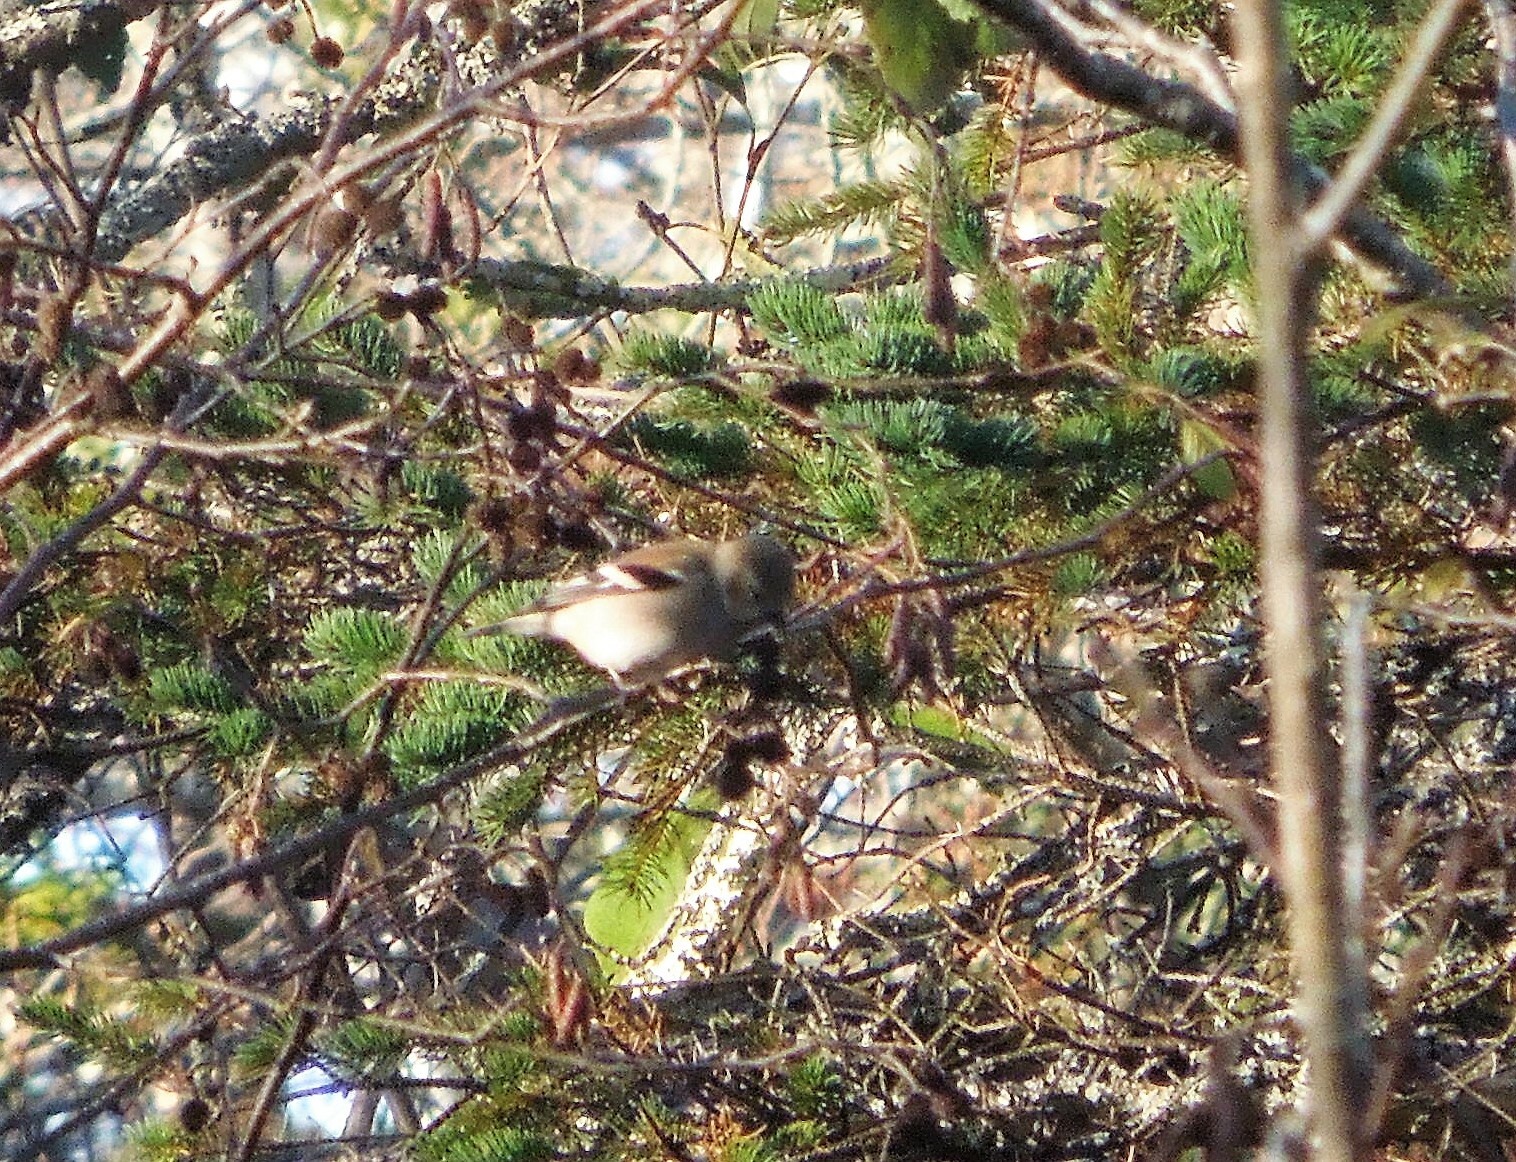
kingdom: Animalia
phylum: Chordata
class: Aves
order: Passeriformes
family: Fringillidae
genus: Spinus
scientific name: Spinus tristis
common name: American goldfinch
